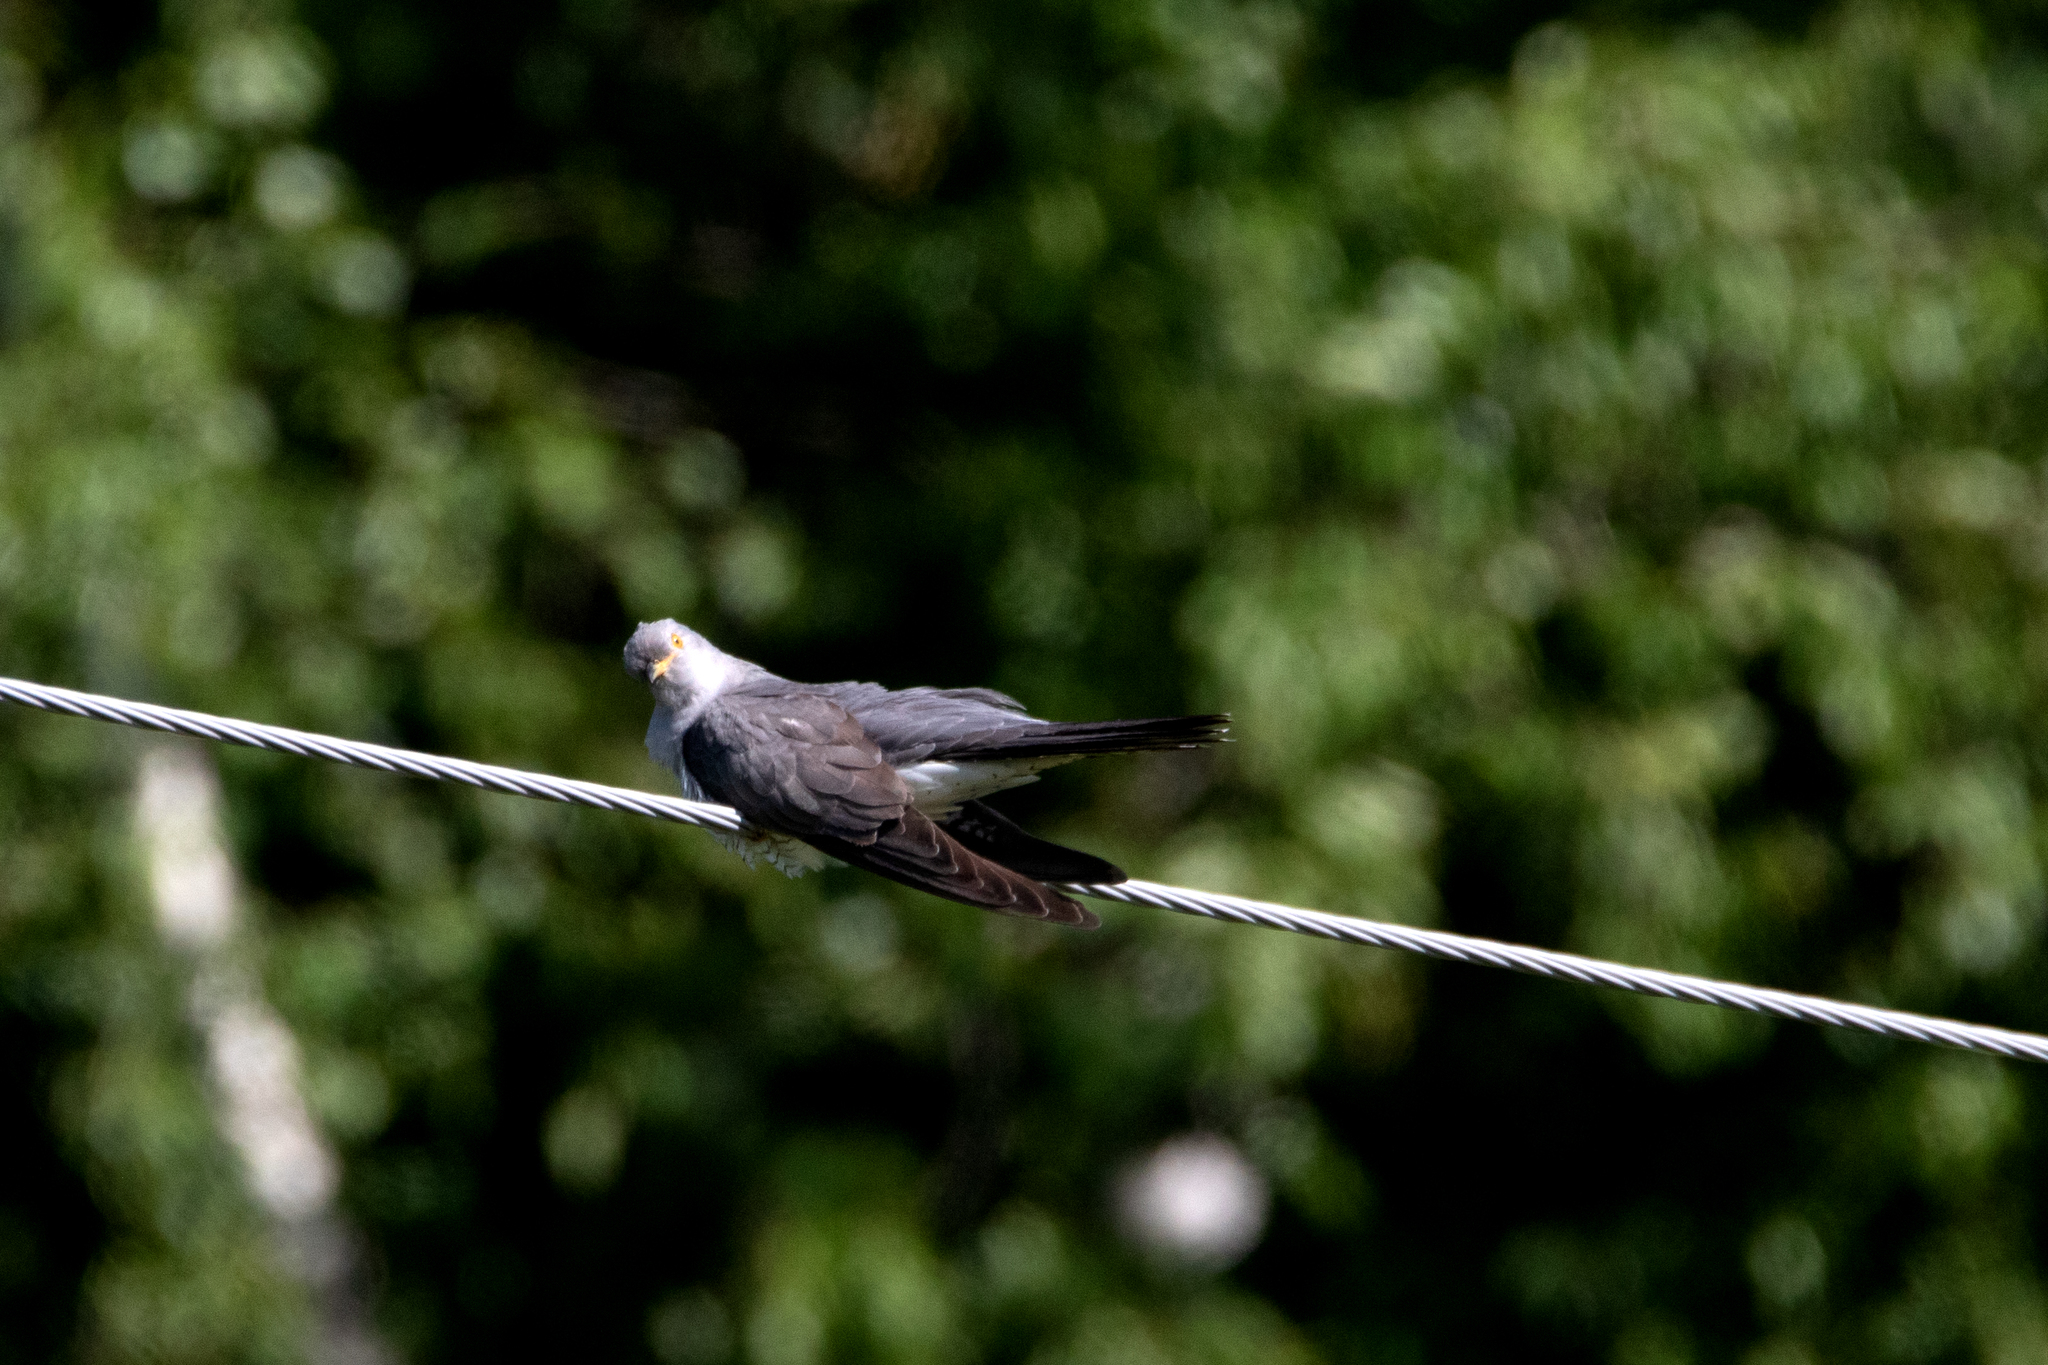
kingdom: Animalia
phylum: Chordata
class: Aves
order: Cuculiformes
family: Cuculidae
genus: Cuculus
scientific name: Cuculus canorus
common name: Common cuckoo
